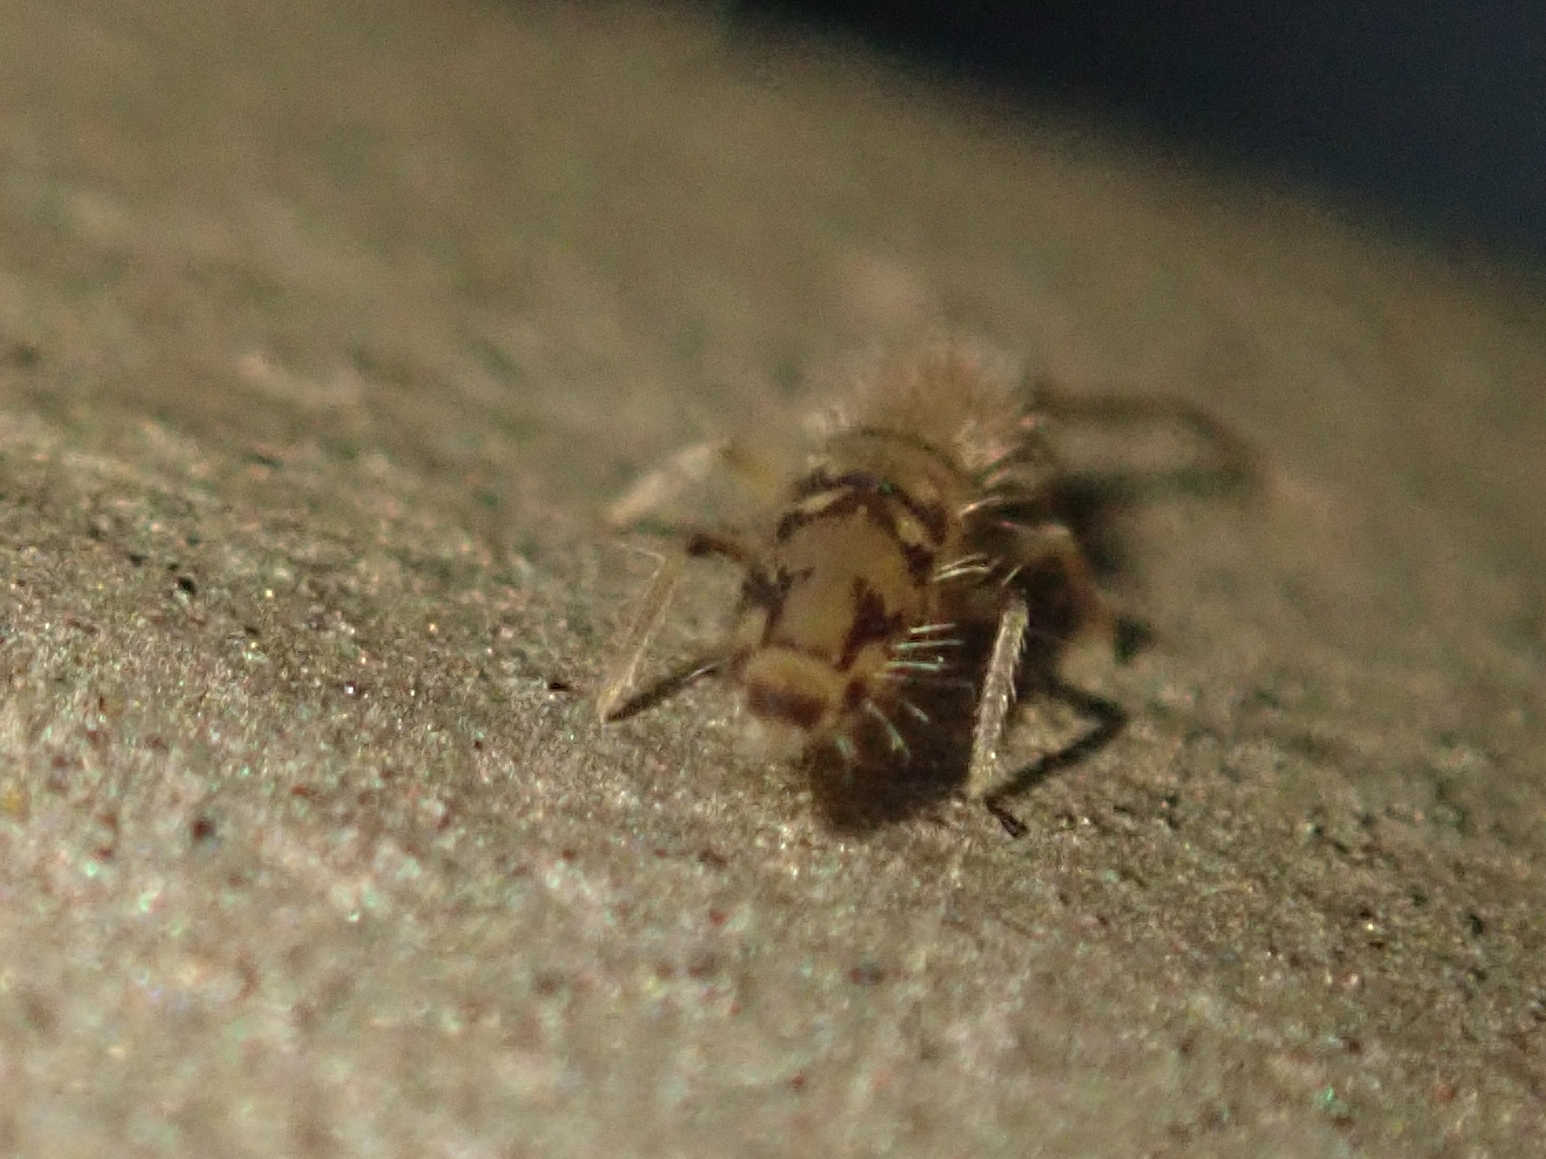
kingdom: Animalia
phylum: Arthropoda
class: Collembola
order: Entomobryomorpha
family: Entomobryidae
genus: Entomobrya
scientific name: Entomobrya nivalis
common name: Cosmopolitan springtail
